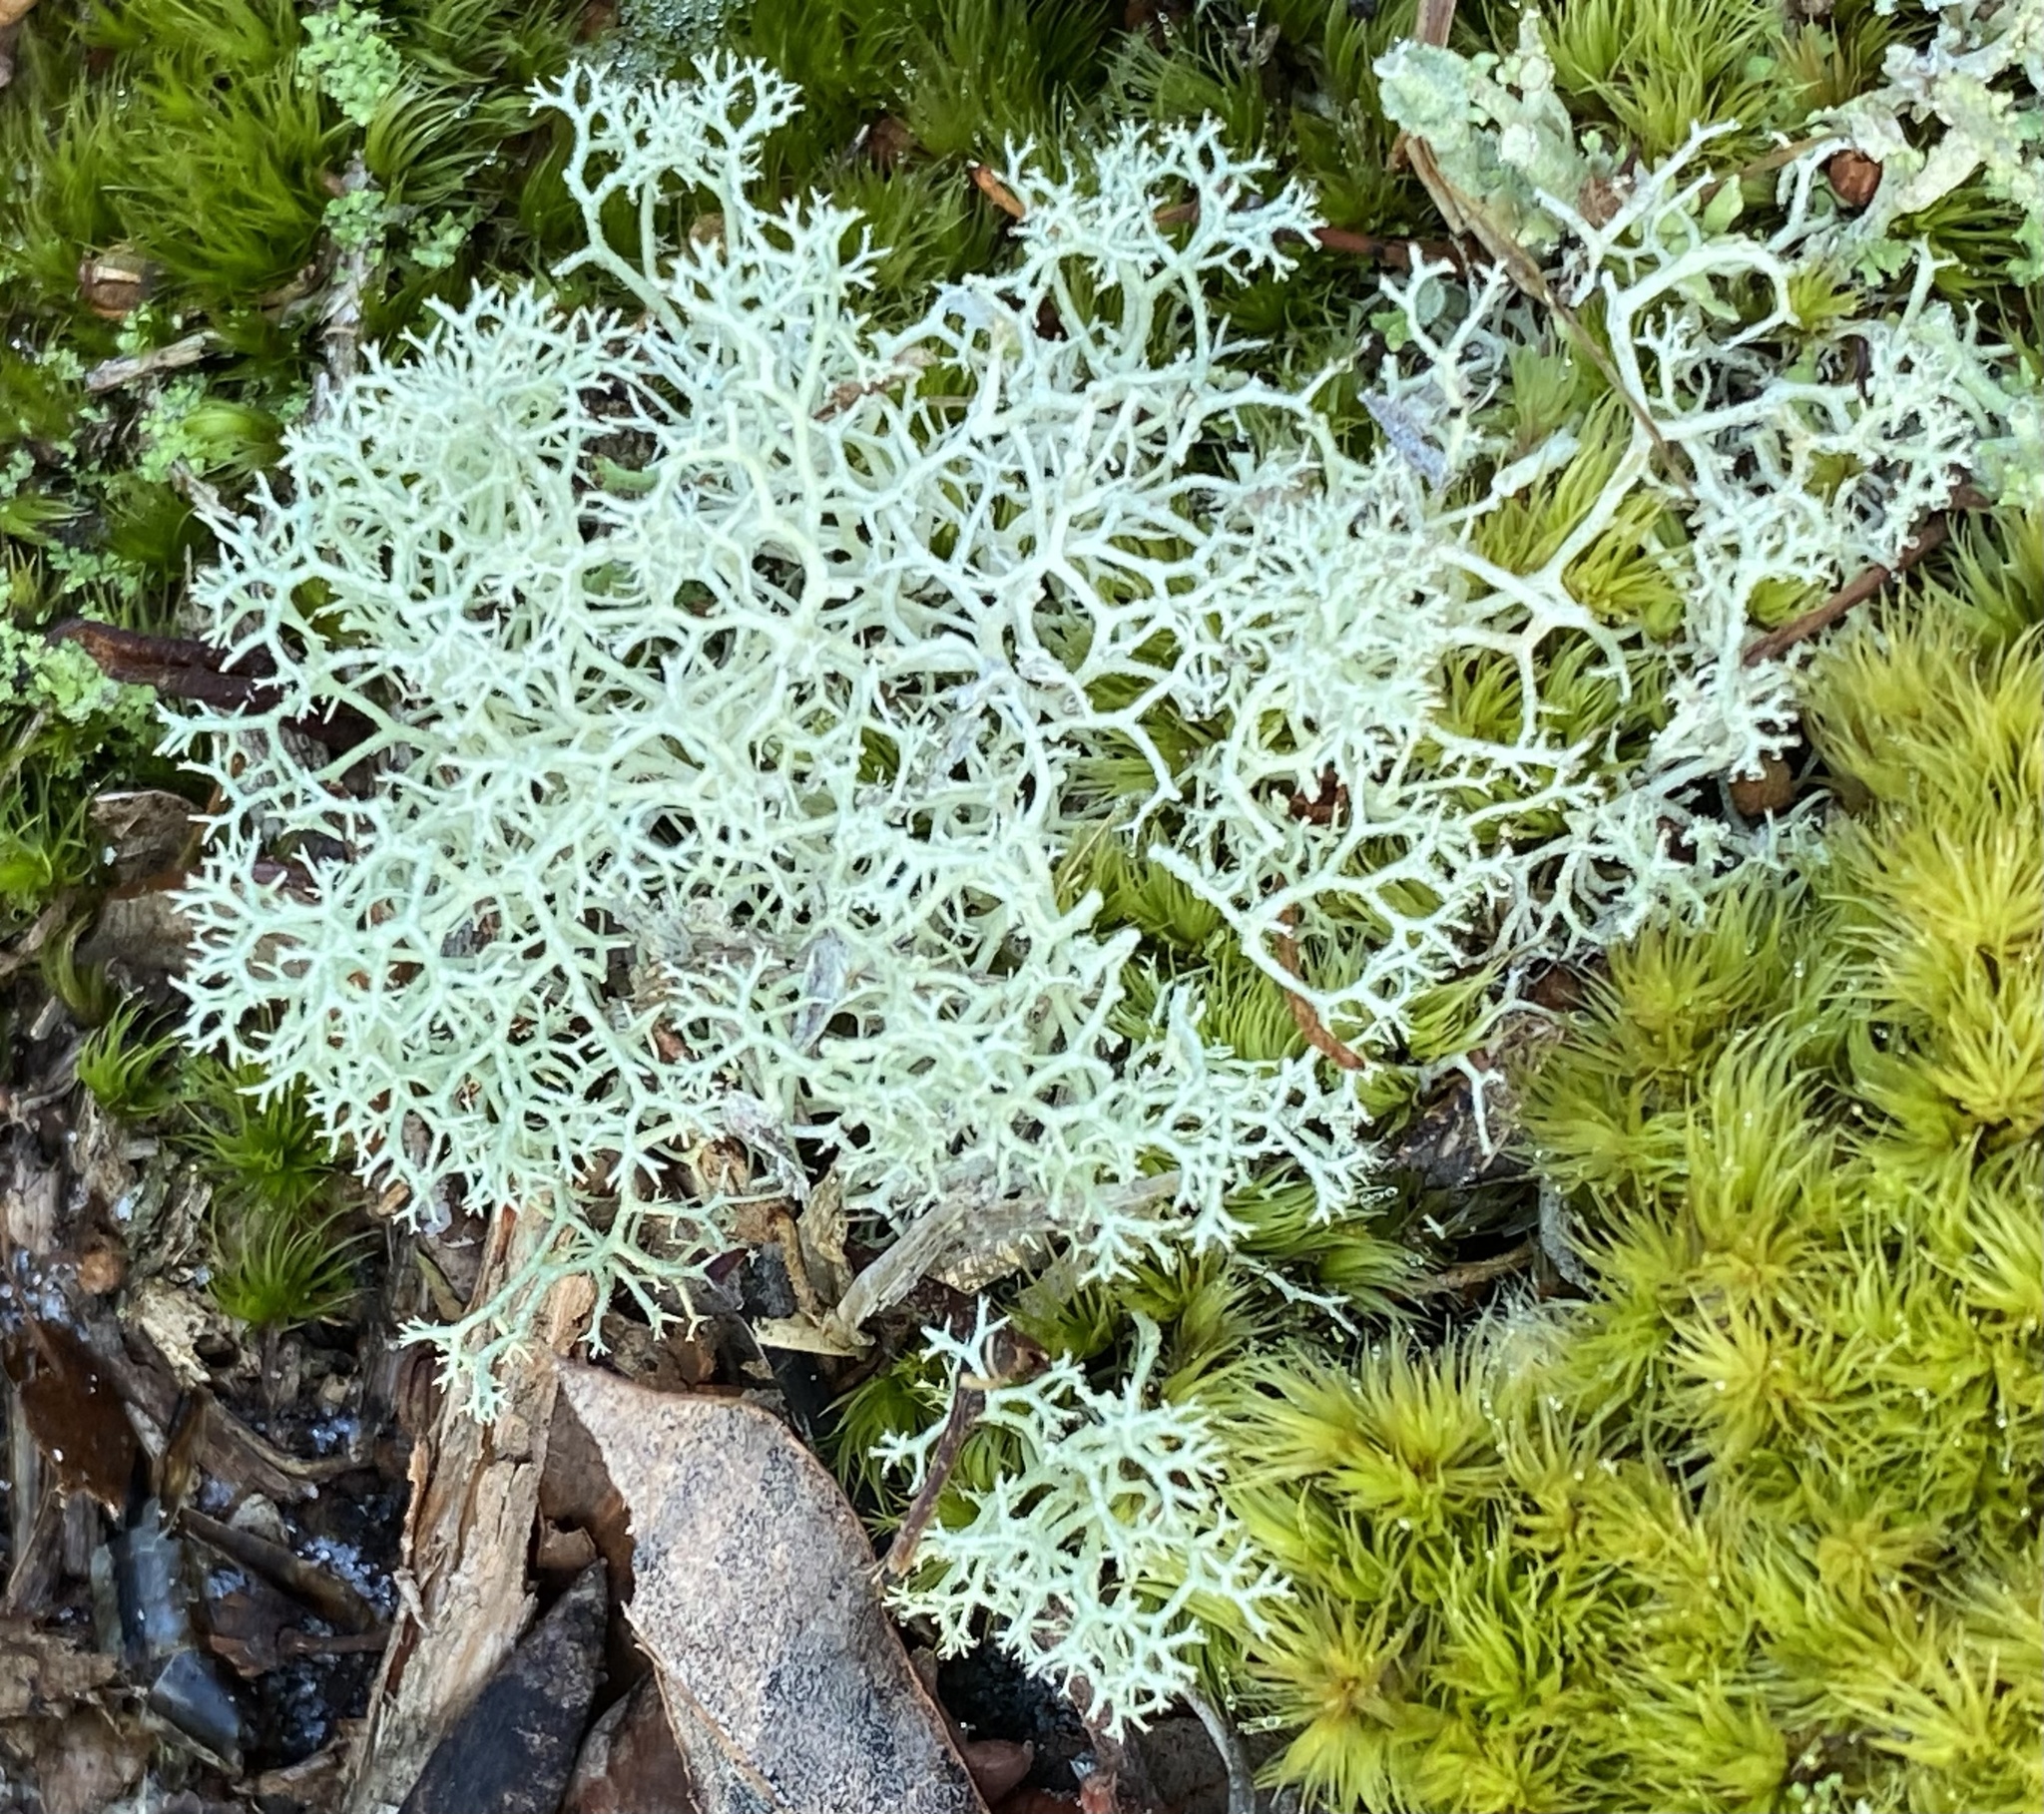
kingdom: Fungi
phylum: Ascomycota
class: Lecanoromycetes
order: Lecanorales
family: Cladoniaceae
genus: Cladonia
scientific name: Cladonia subtenuis
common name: Dixie reindeer lichen
